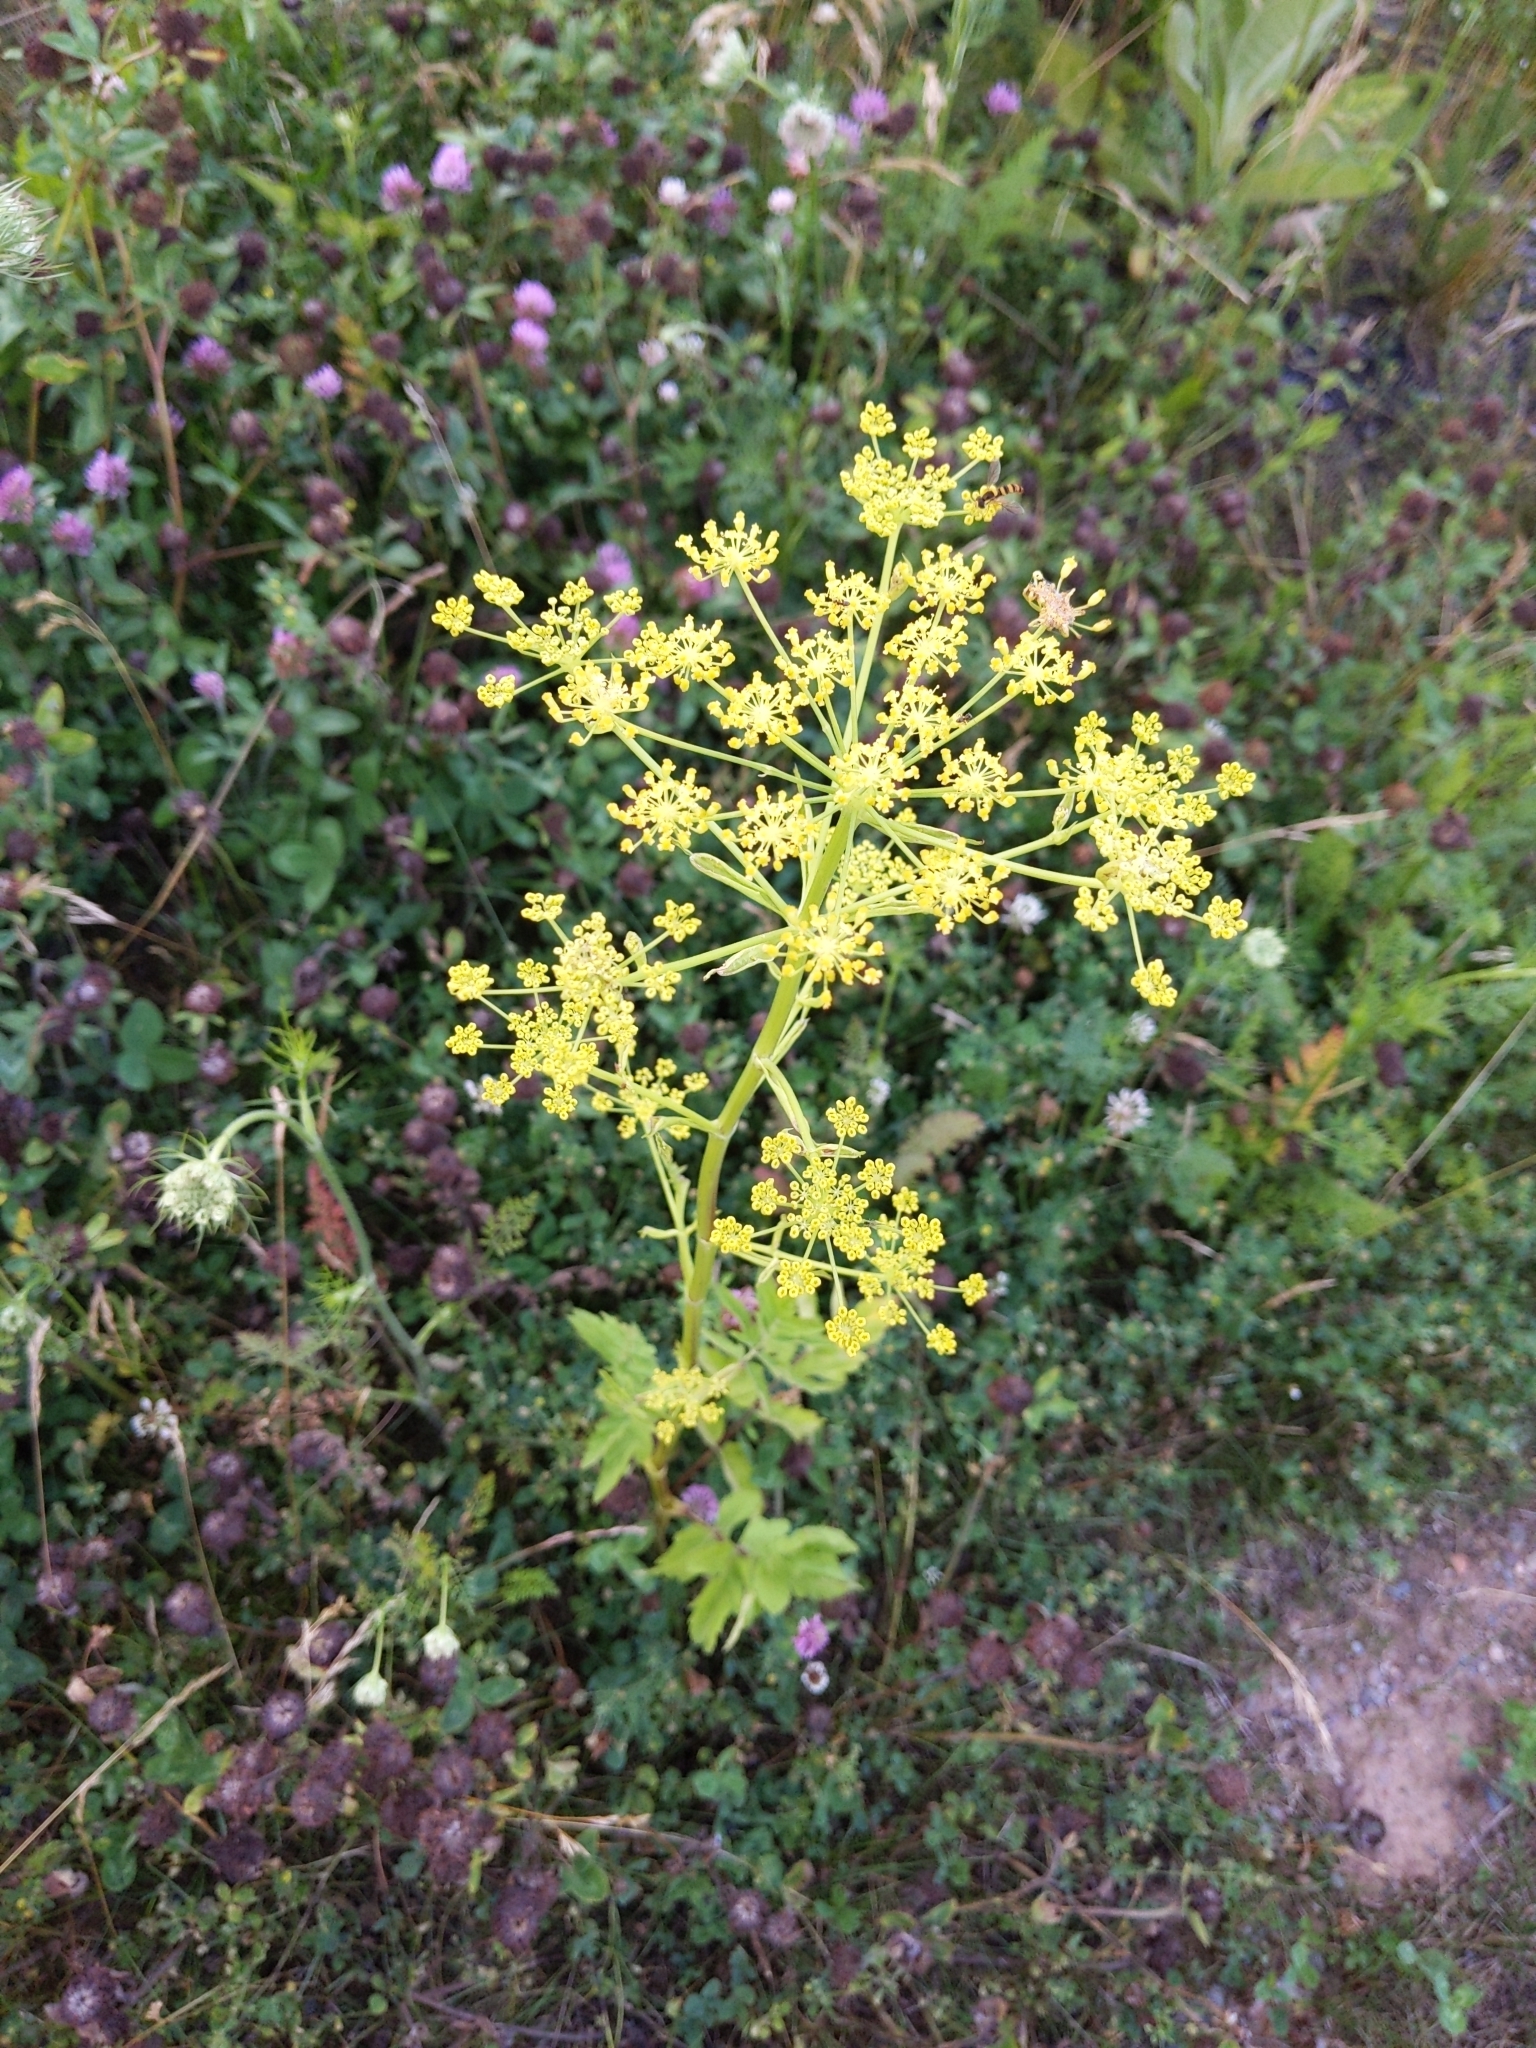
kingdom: Plantae
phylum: Tracheophyta
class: Magnoliopsida
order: Apiales
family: Apiaceae
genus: Pastinaca
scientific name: Pastinaca sativa
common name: Wild parsnip
